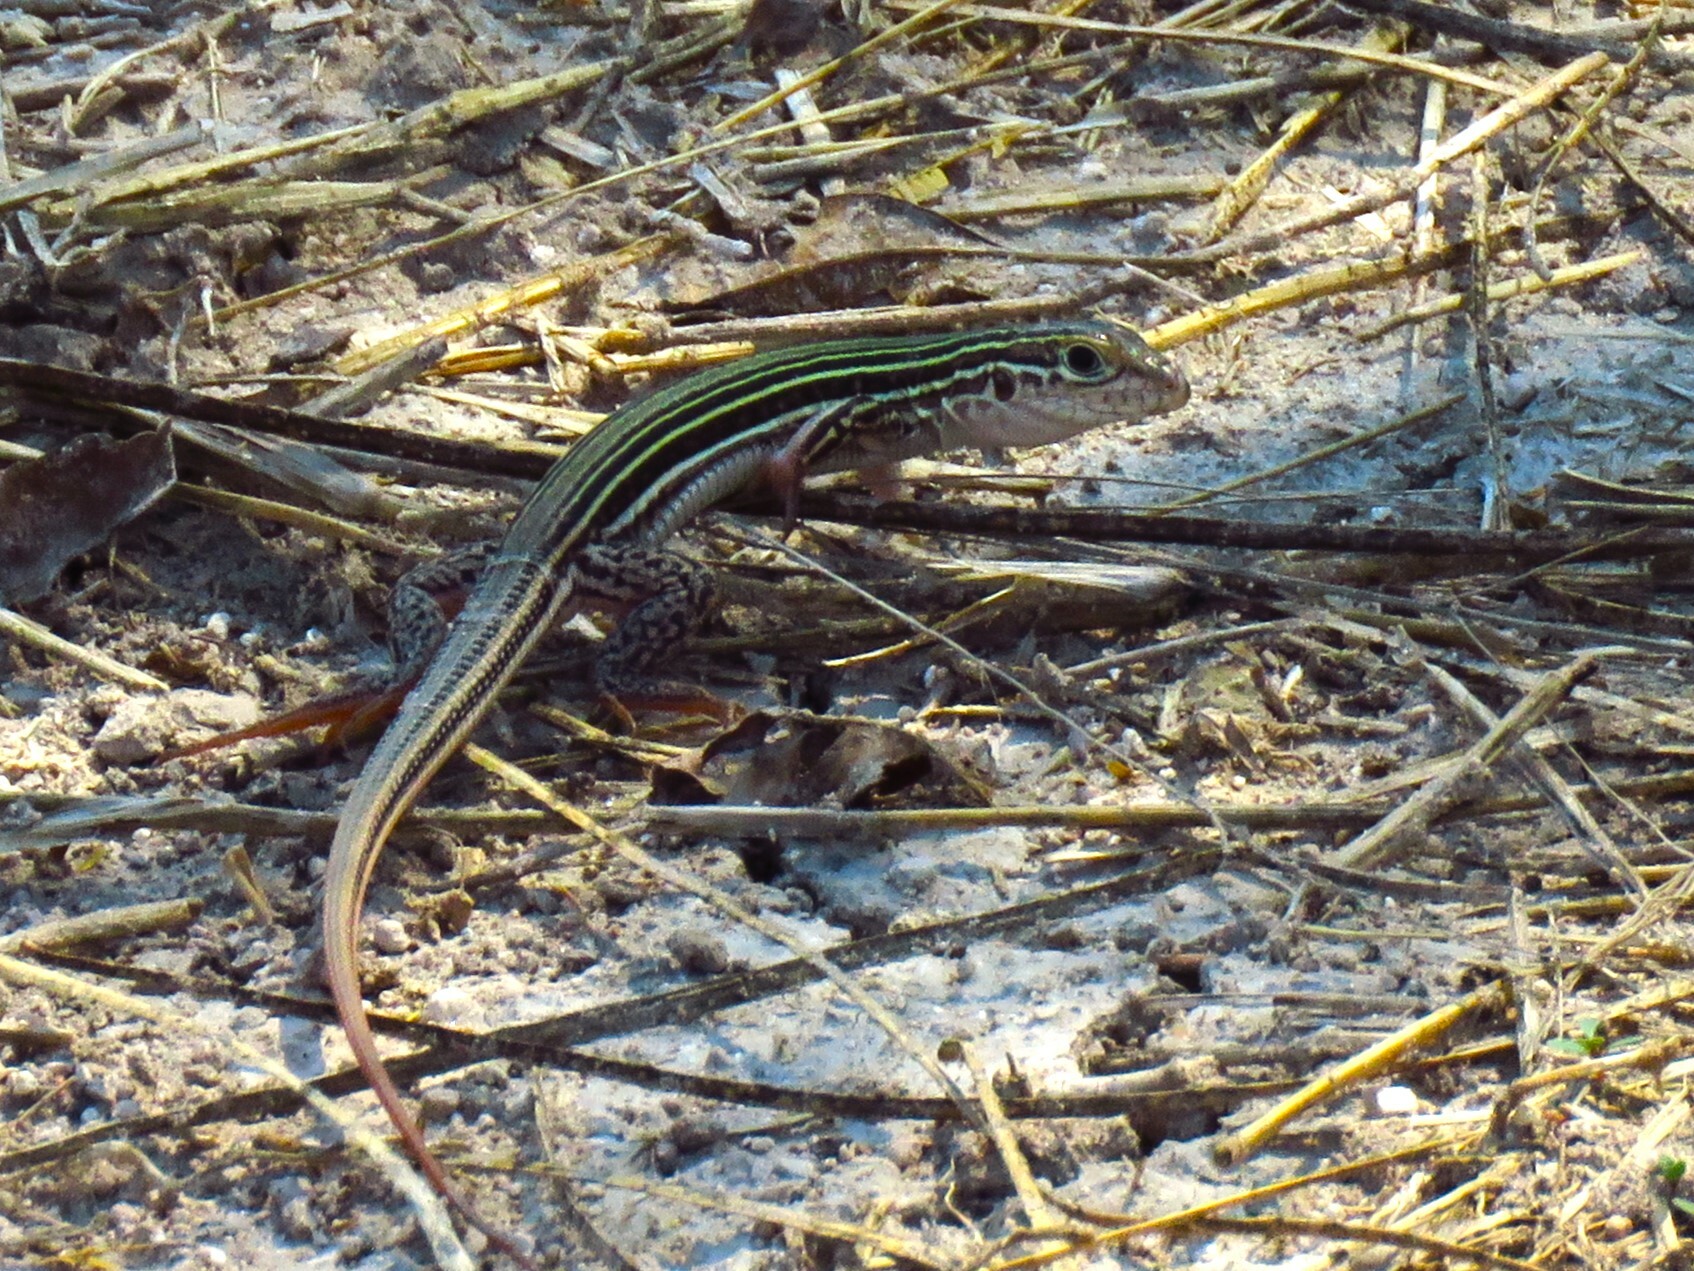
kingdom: Animalia
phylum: Chordata
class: Squamata
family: Teiidae
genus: Aspidoscelis
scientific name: Aspidoscelis gularis
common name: Eastern spotted whiptail
